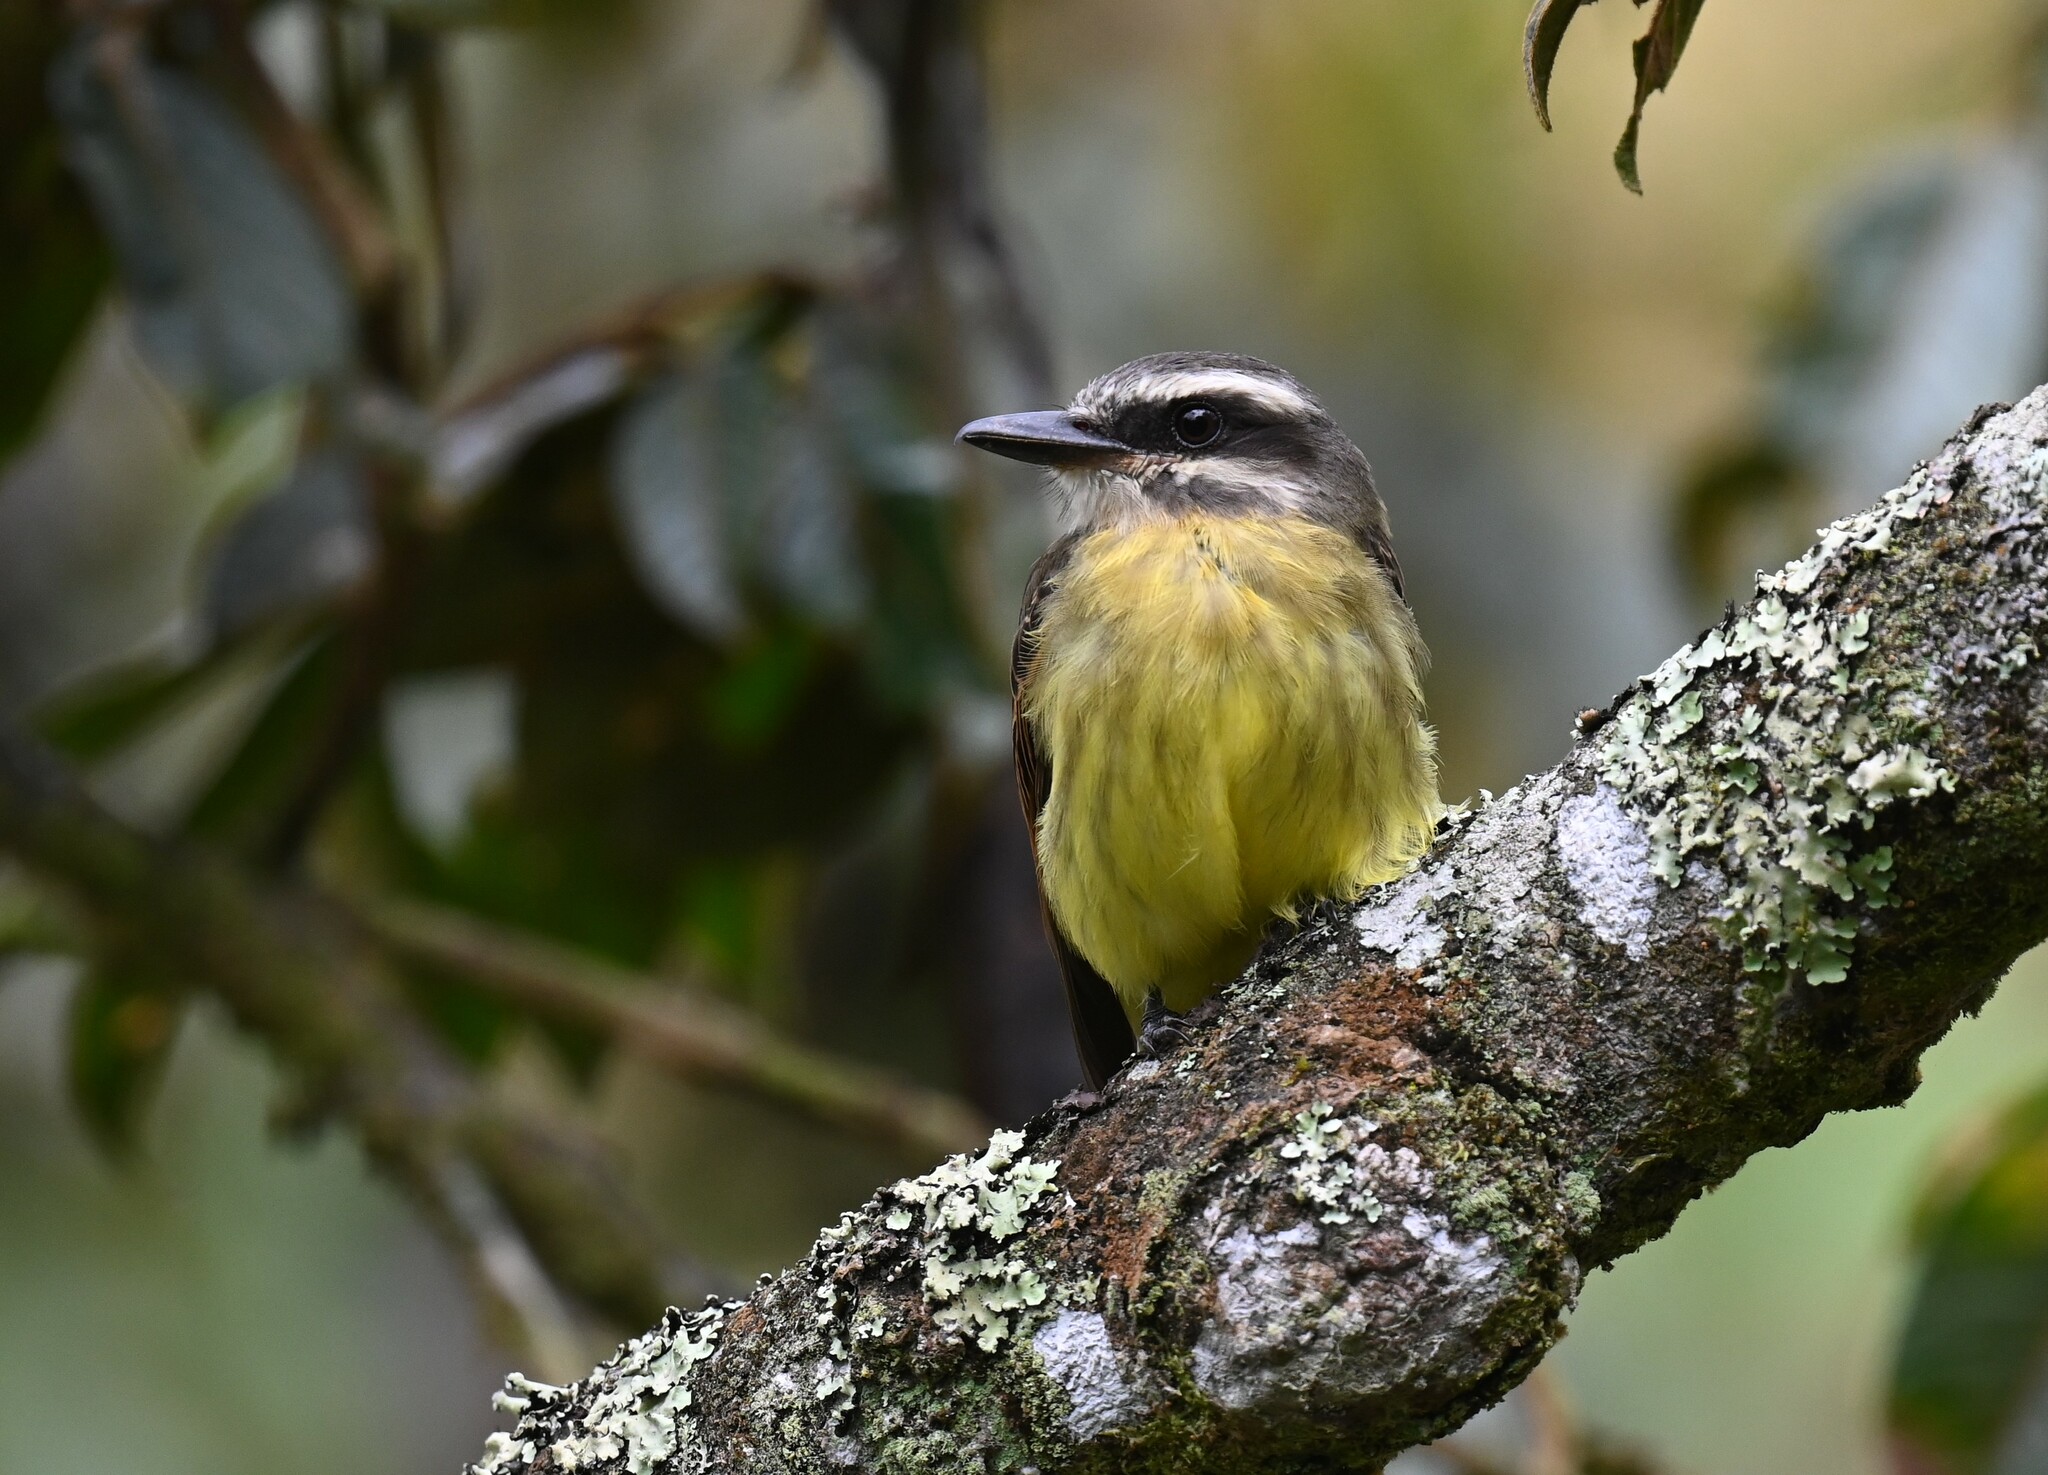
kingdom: Animalia
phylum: Chordata
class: Aves
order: Passeriformes
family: Tyrannidae
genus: Myiodynastes
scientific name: Myiodynastes hemichrysus
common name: Golden-bellied flycatcher
